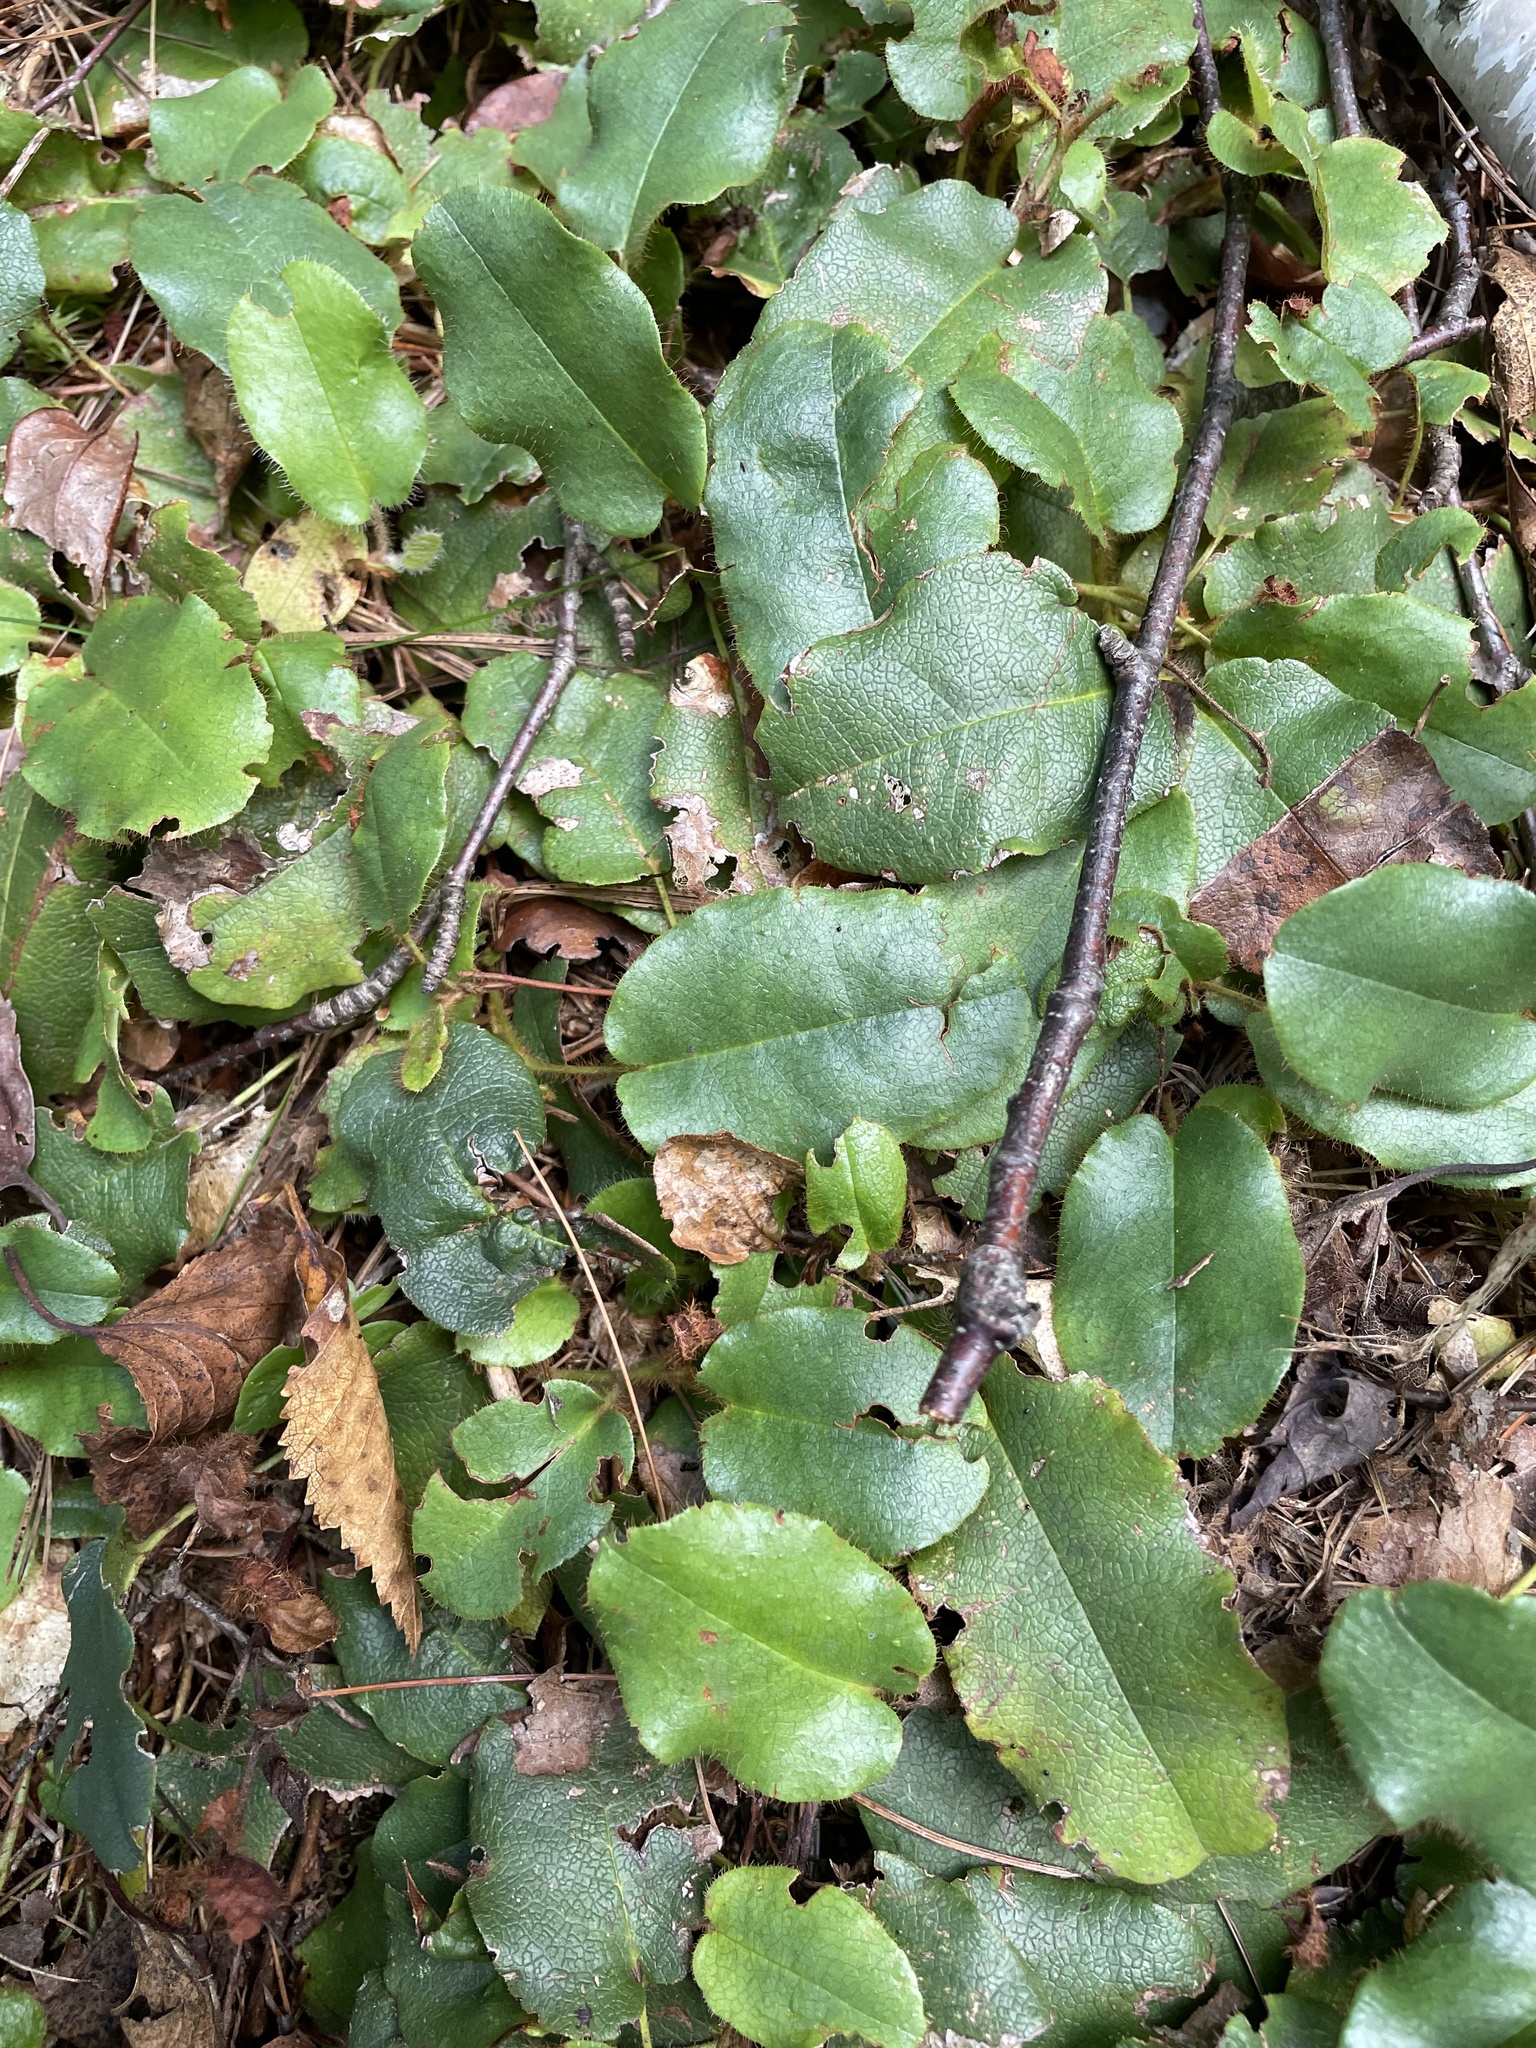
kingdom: Plantae
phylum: Tracheophyta
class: Magnoliopsida
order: Ericales
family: Ericaceae
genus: Epigaea
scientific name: Epigaea repens
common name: Gravelroot
